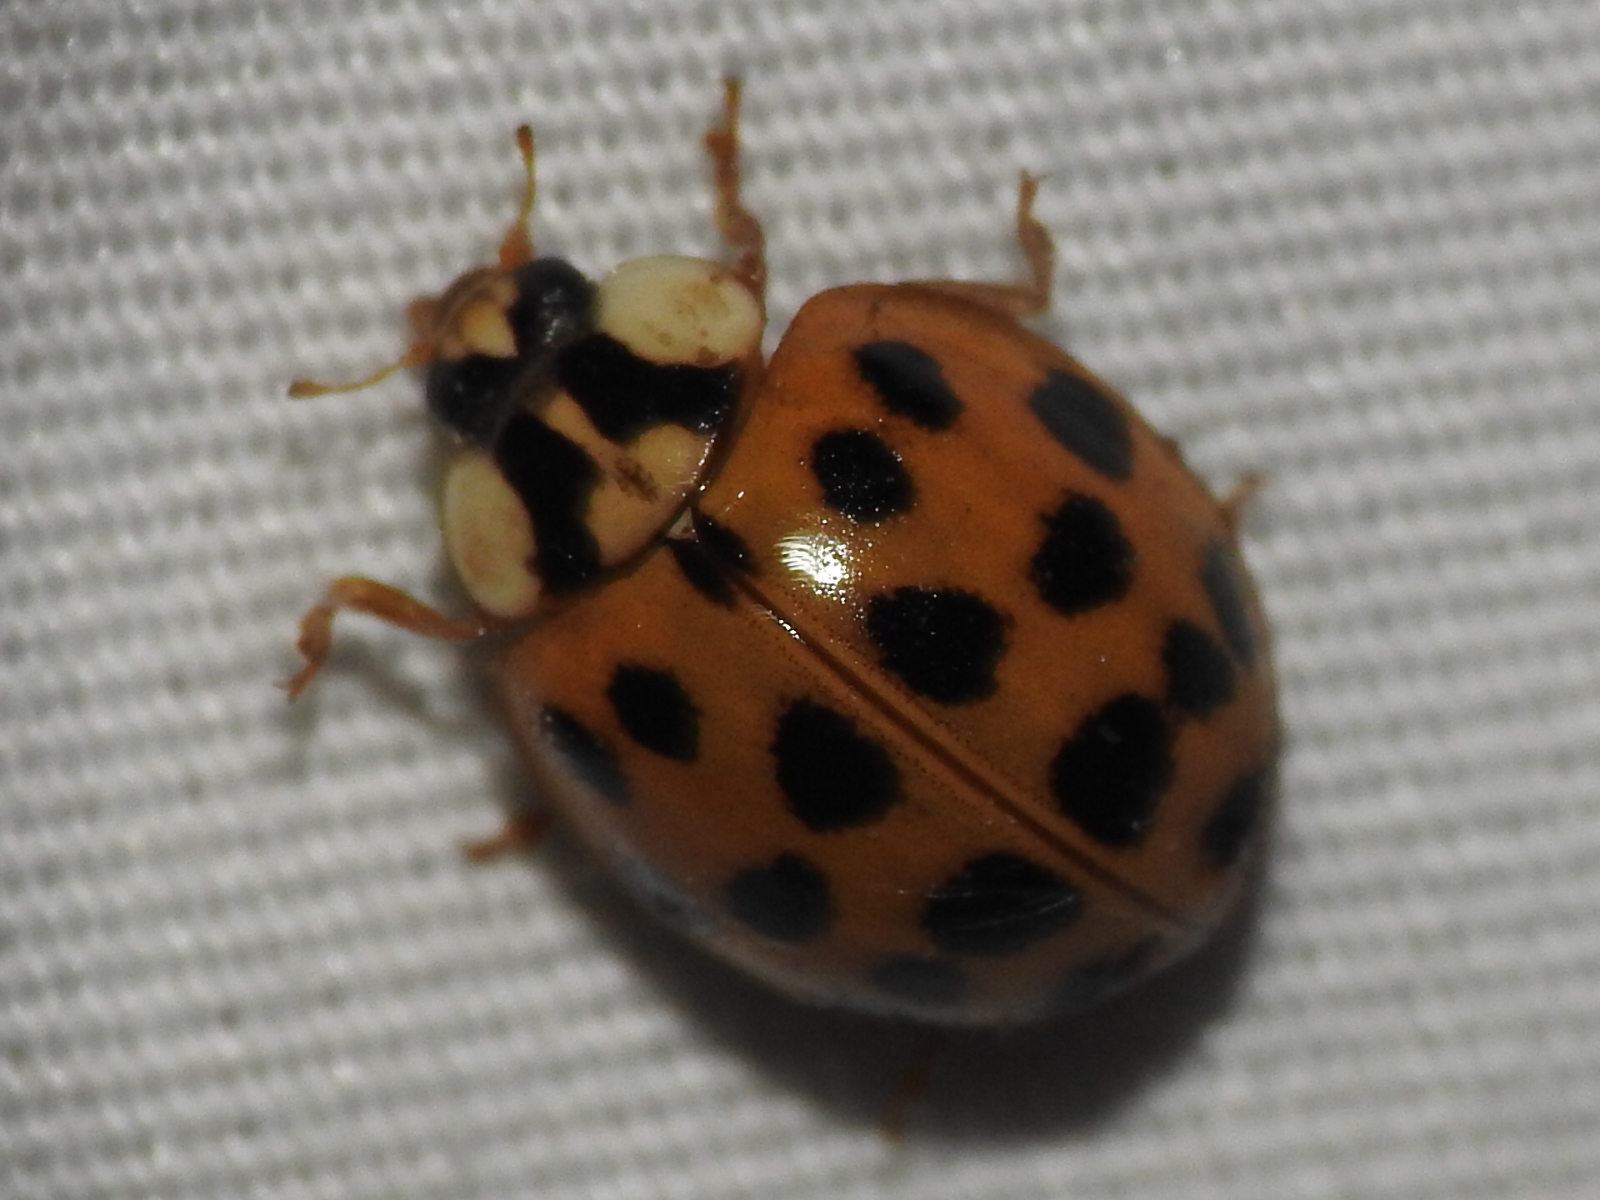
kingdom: Animalia
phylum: Arthropoda
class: Insecta
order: Coleoptera
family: Coccinellidae
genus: Harmonia
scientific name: Harmonia axyridis
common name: Harlequin ladybird
